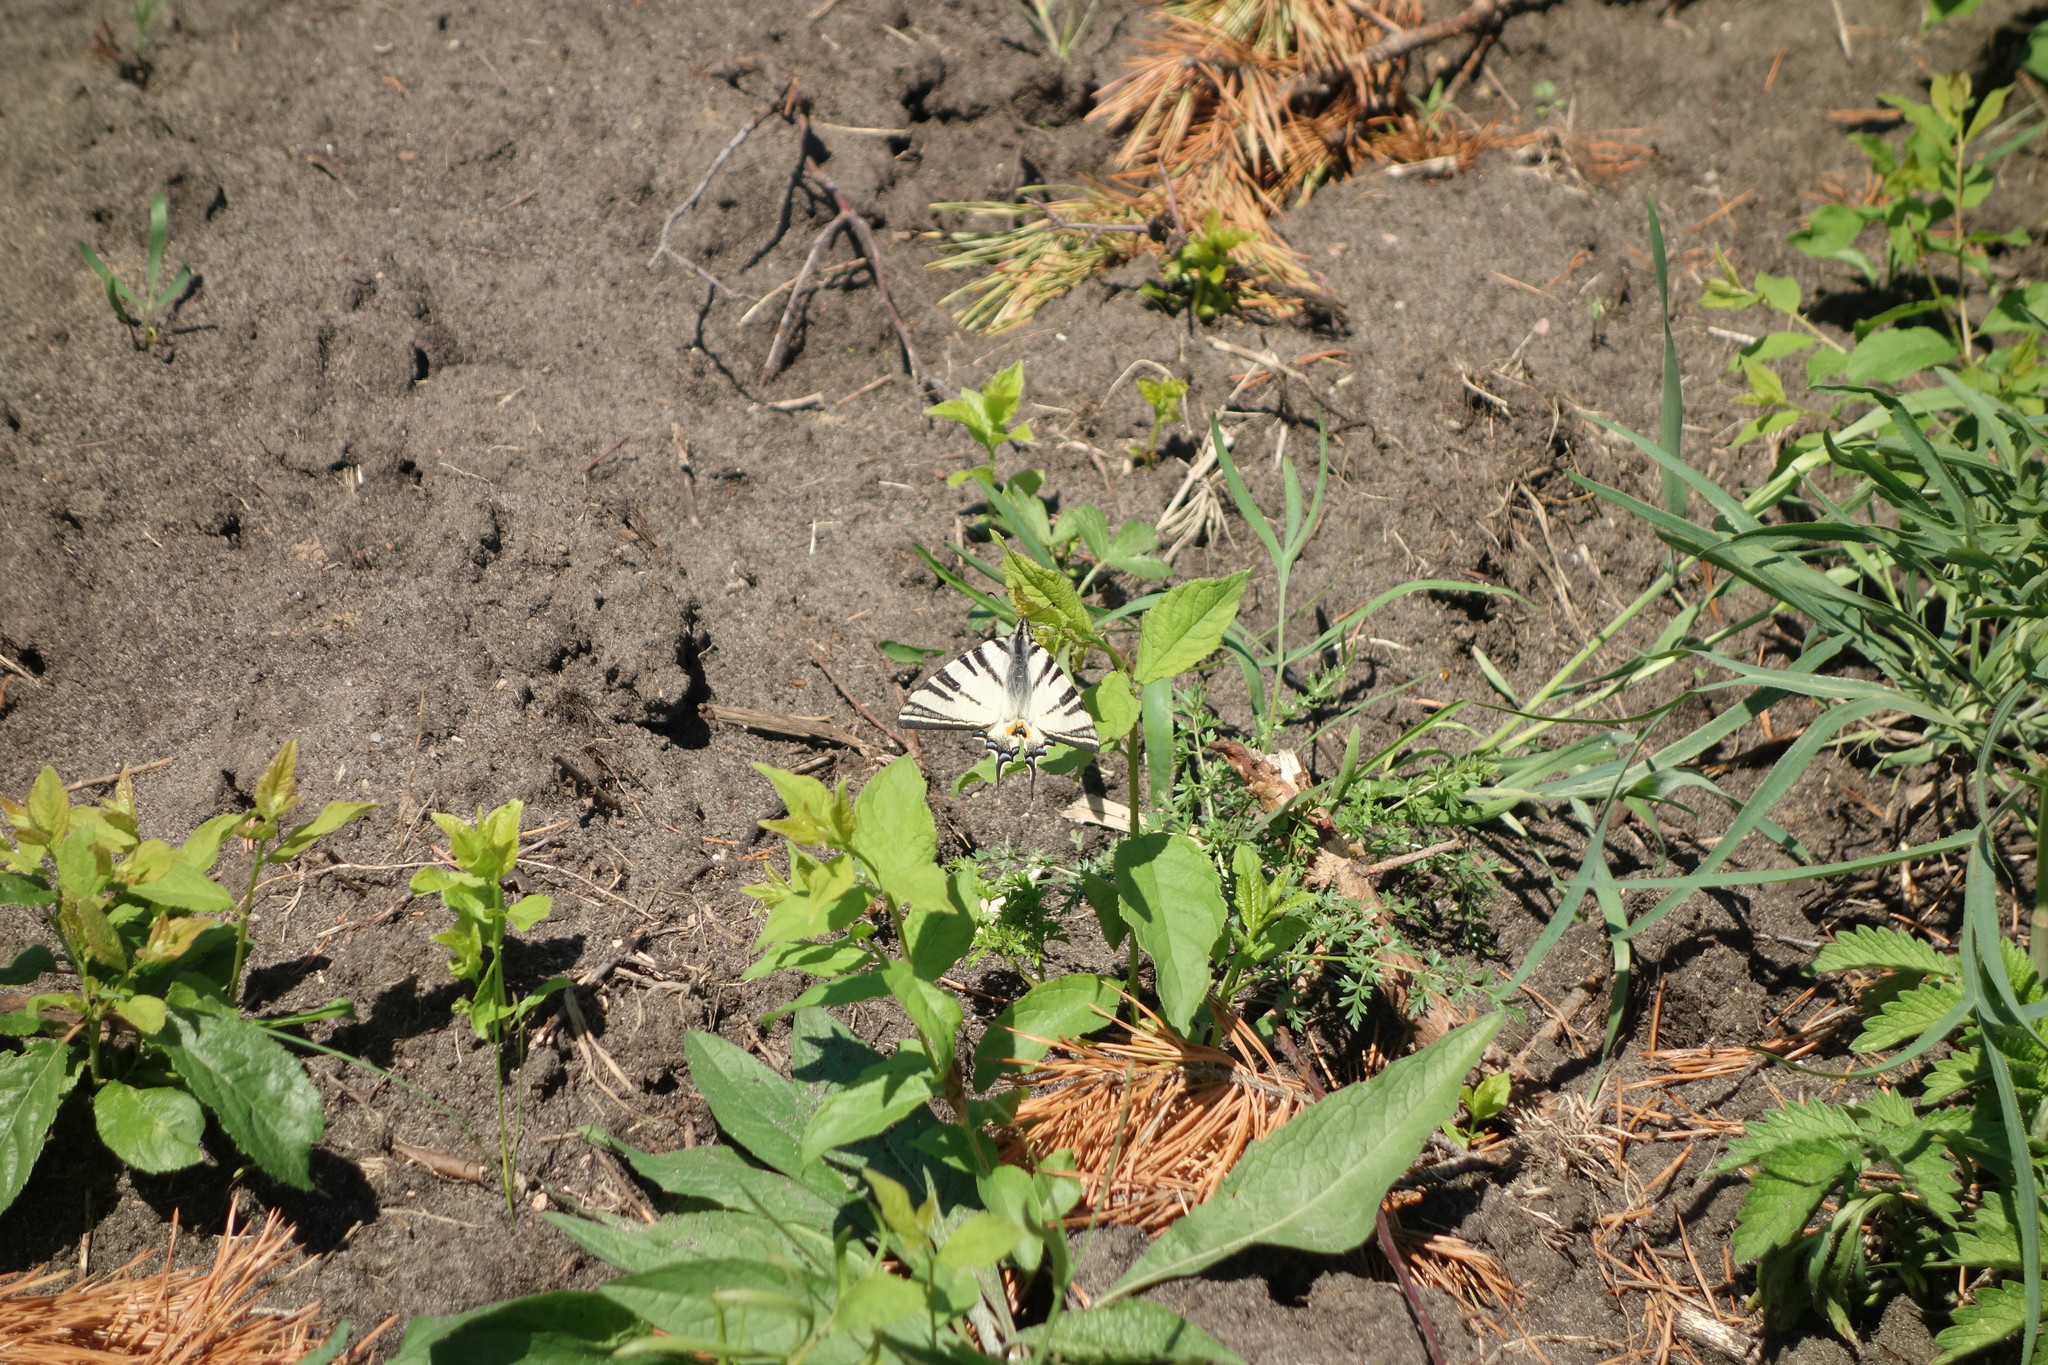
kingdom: Animalia
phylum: Arthropoda
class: Insecta
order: Lepidoptera
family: Papilionidae
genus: Iphiclides
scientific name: Iphiclides podalirius
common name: Scarce swallowtail
